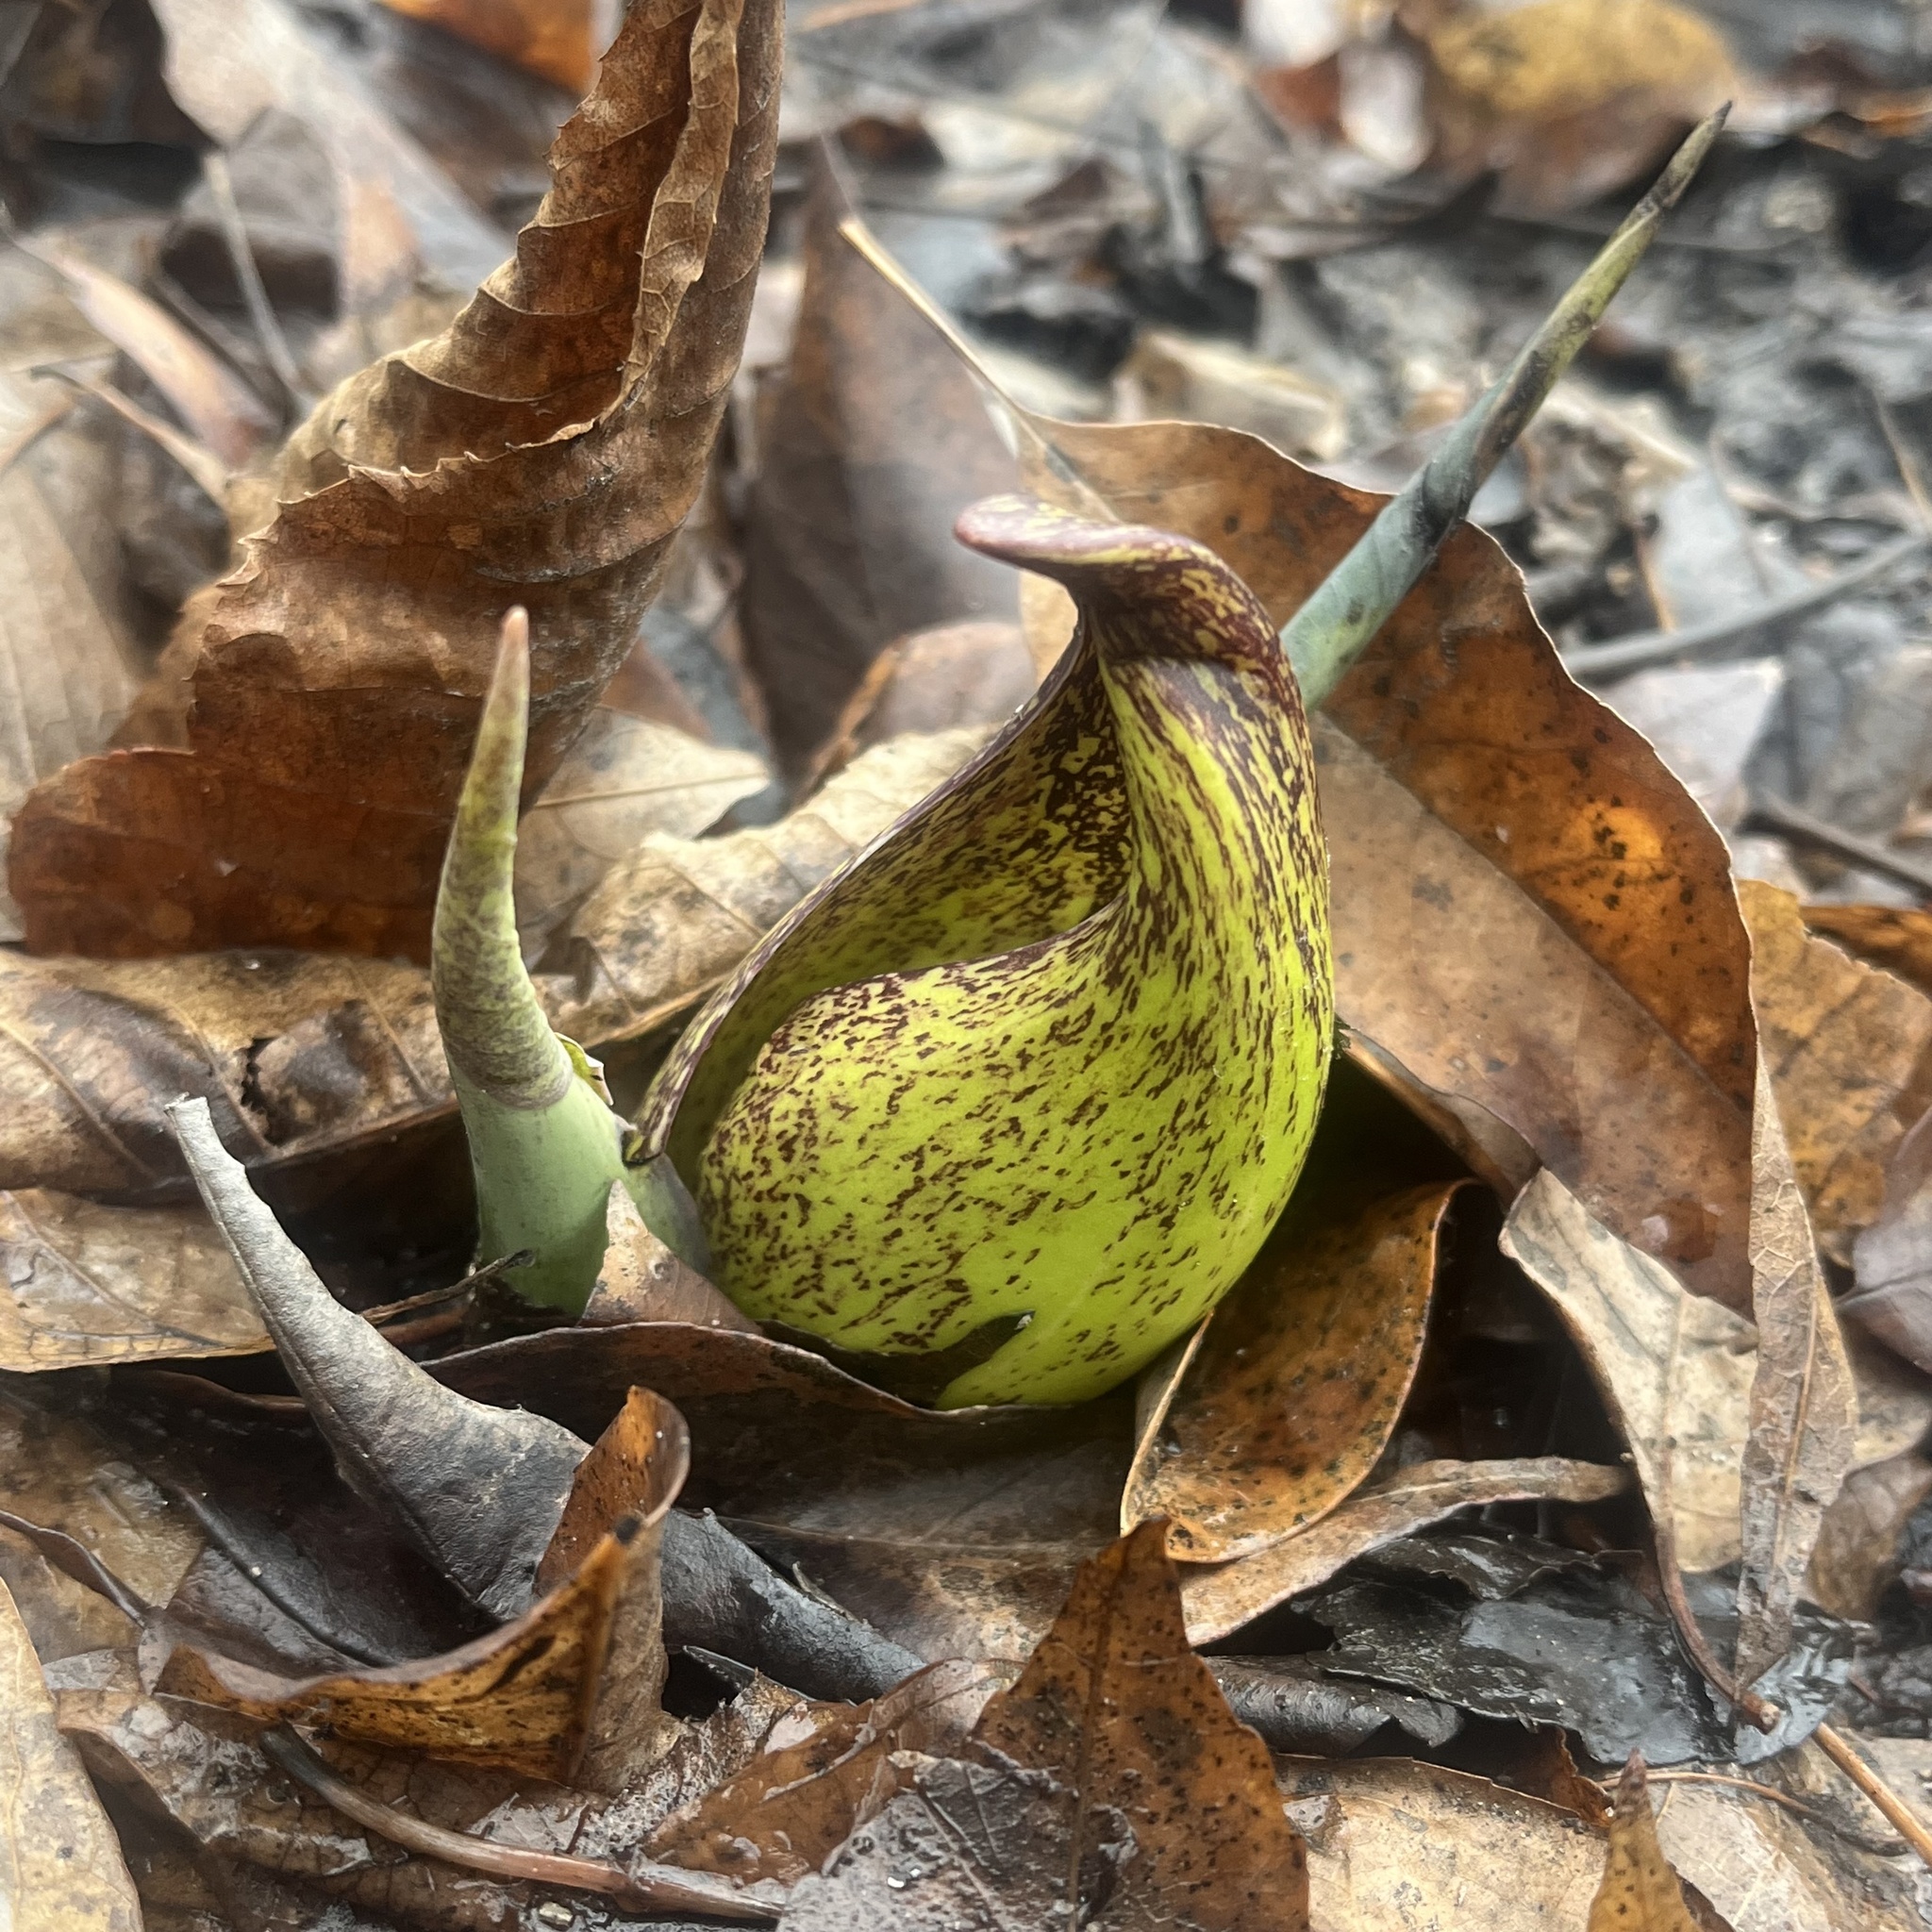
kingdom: Plantae
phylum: Tracheophyta
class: Liliopsida
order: Alismatales
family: Araceae
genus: Symplocarpus
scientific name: Symplocarpus foetidus
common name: Eastern skunk cabbage
